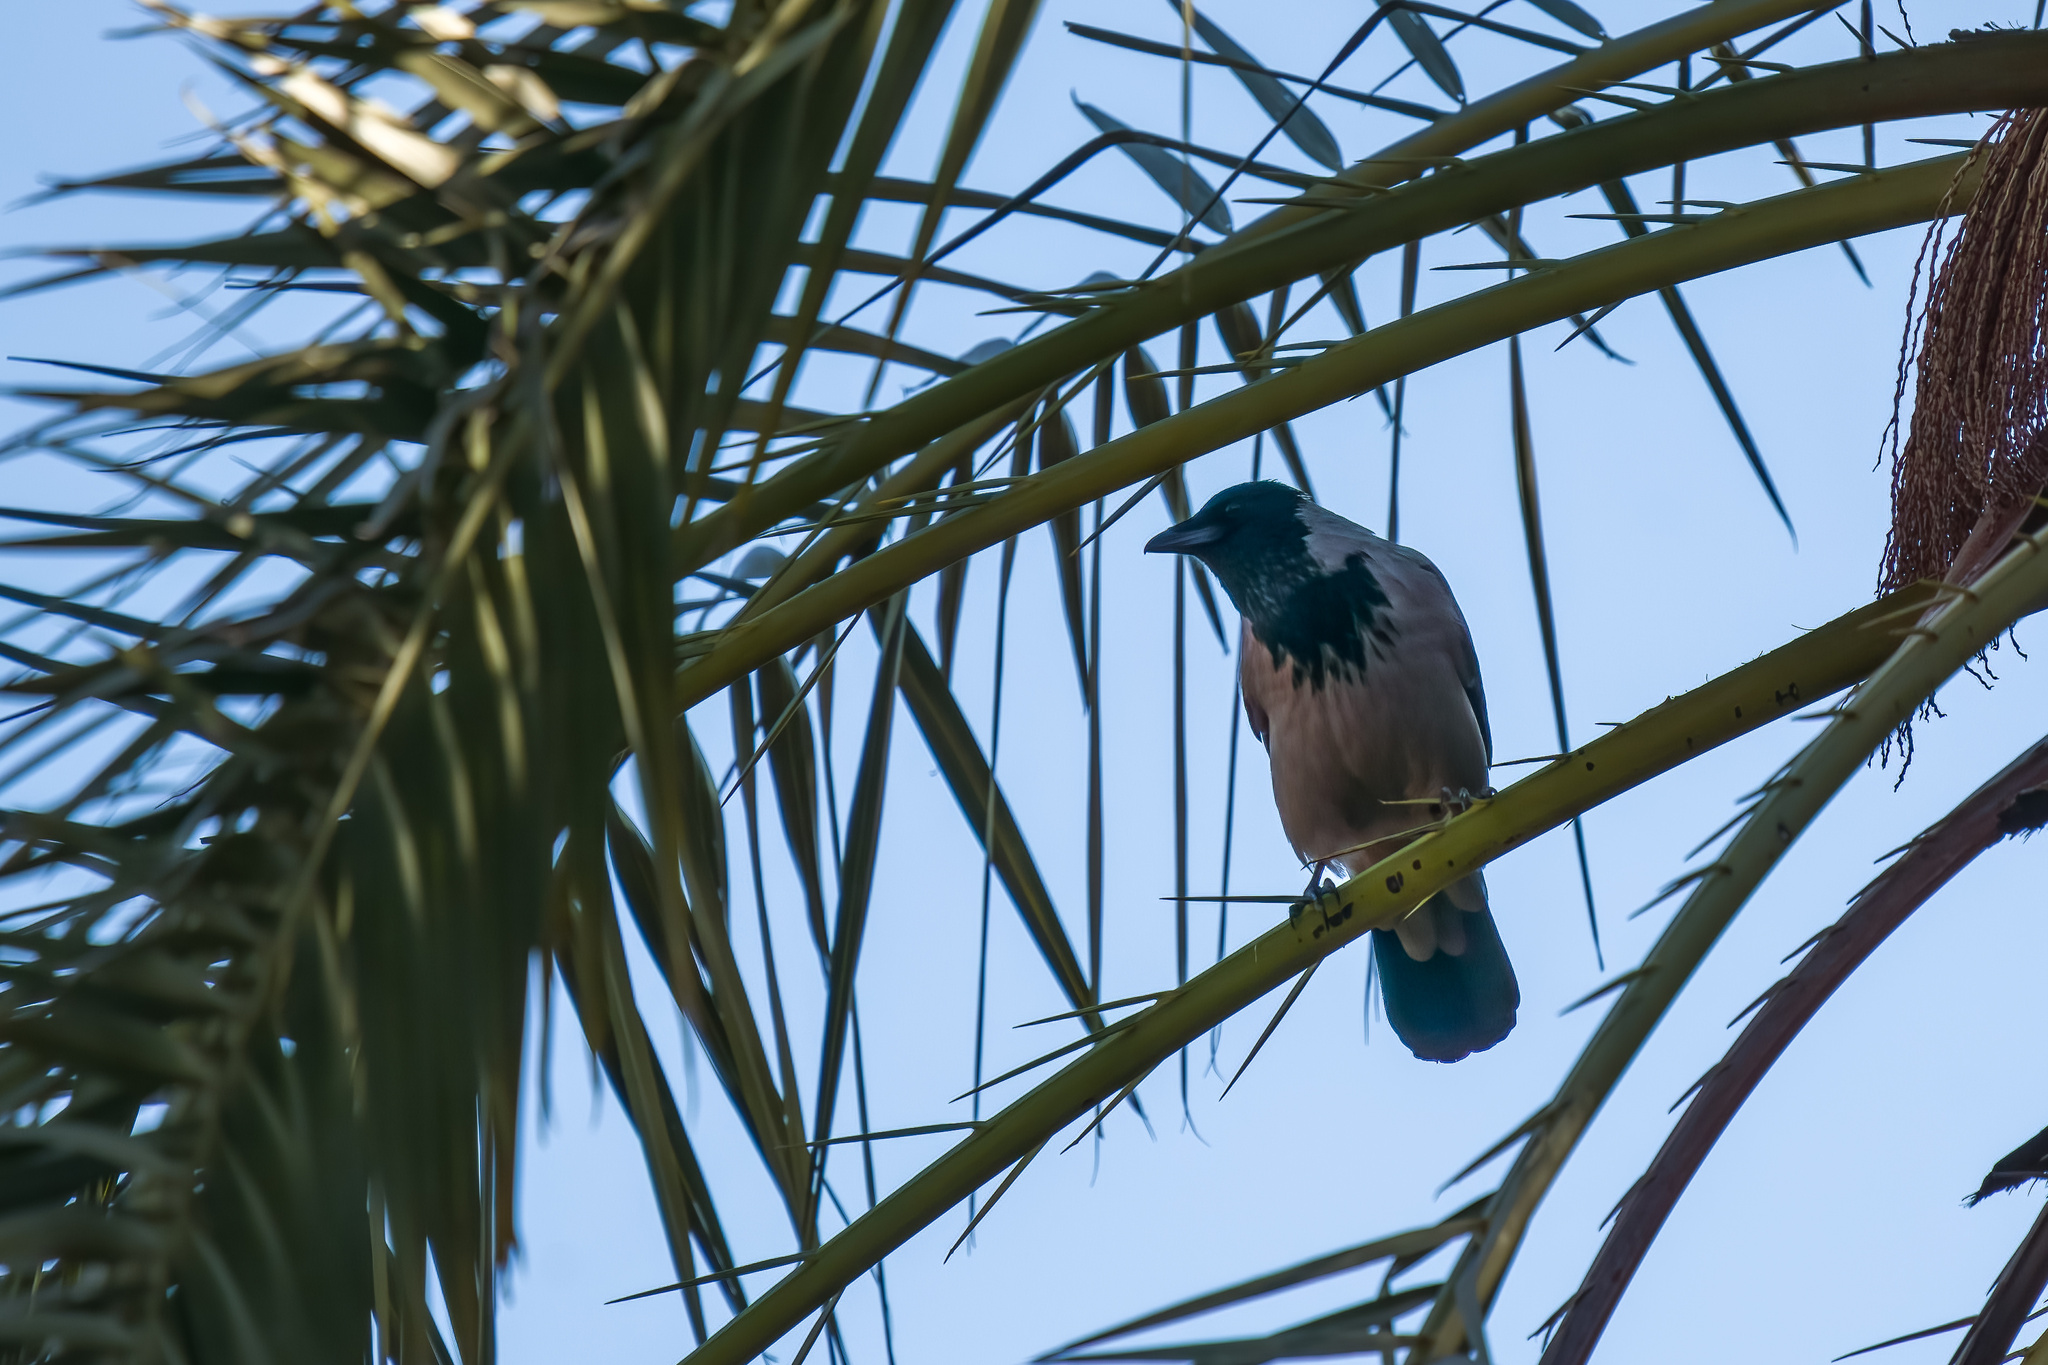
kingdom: Animalia
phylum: Chordata
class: Aves
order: Passeriformes
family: Corvidae
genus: Corvus
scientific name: Corvus cornix
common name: Hooded crow
